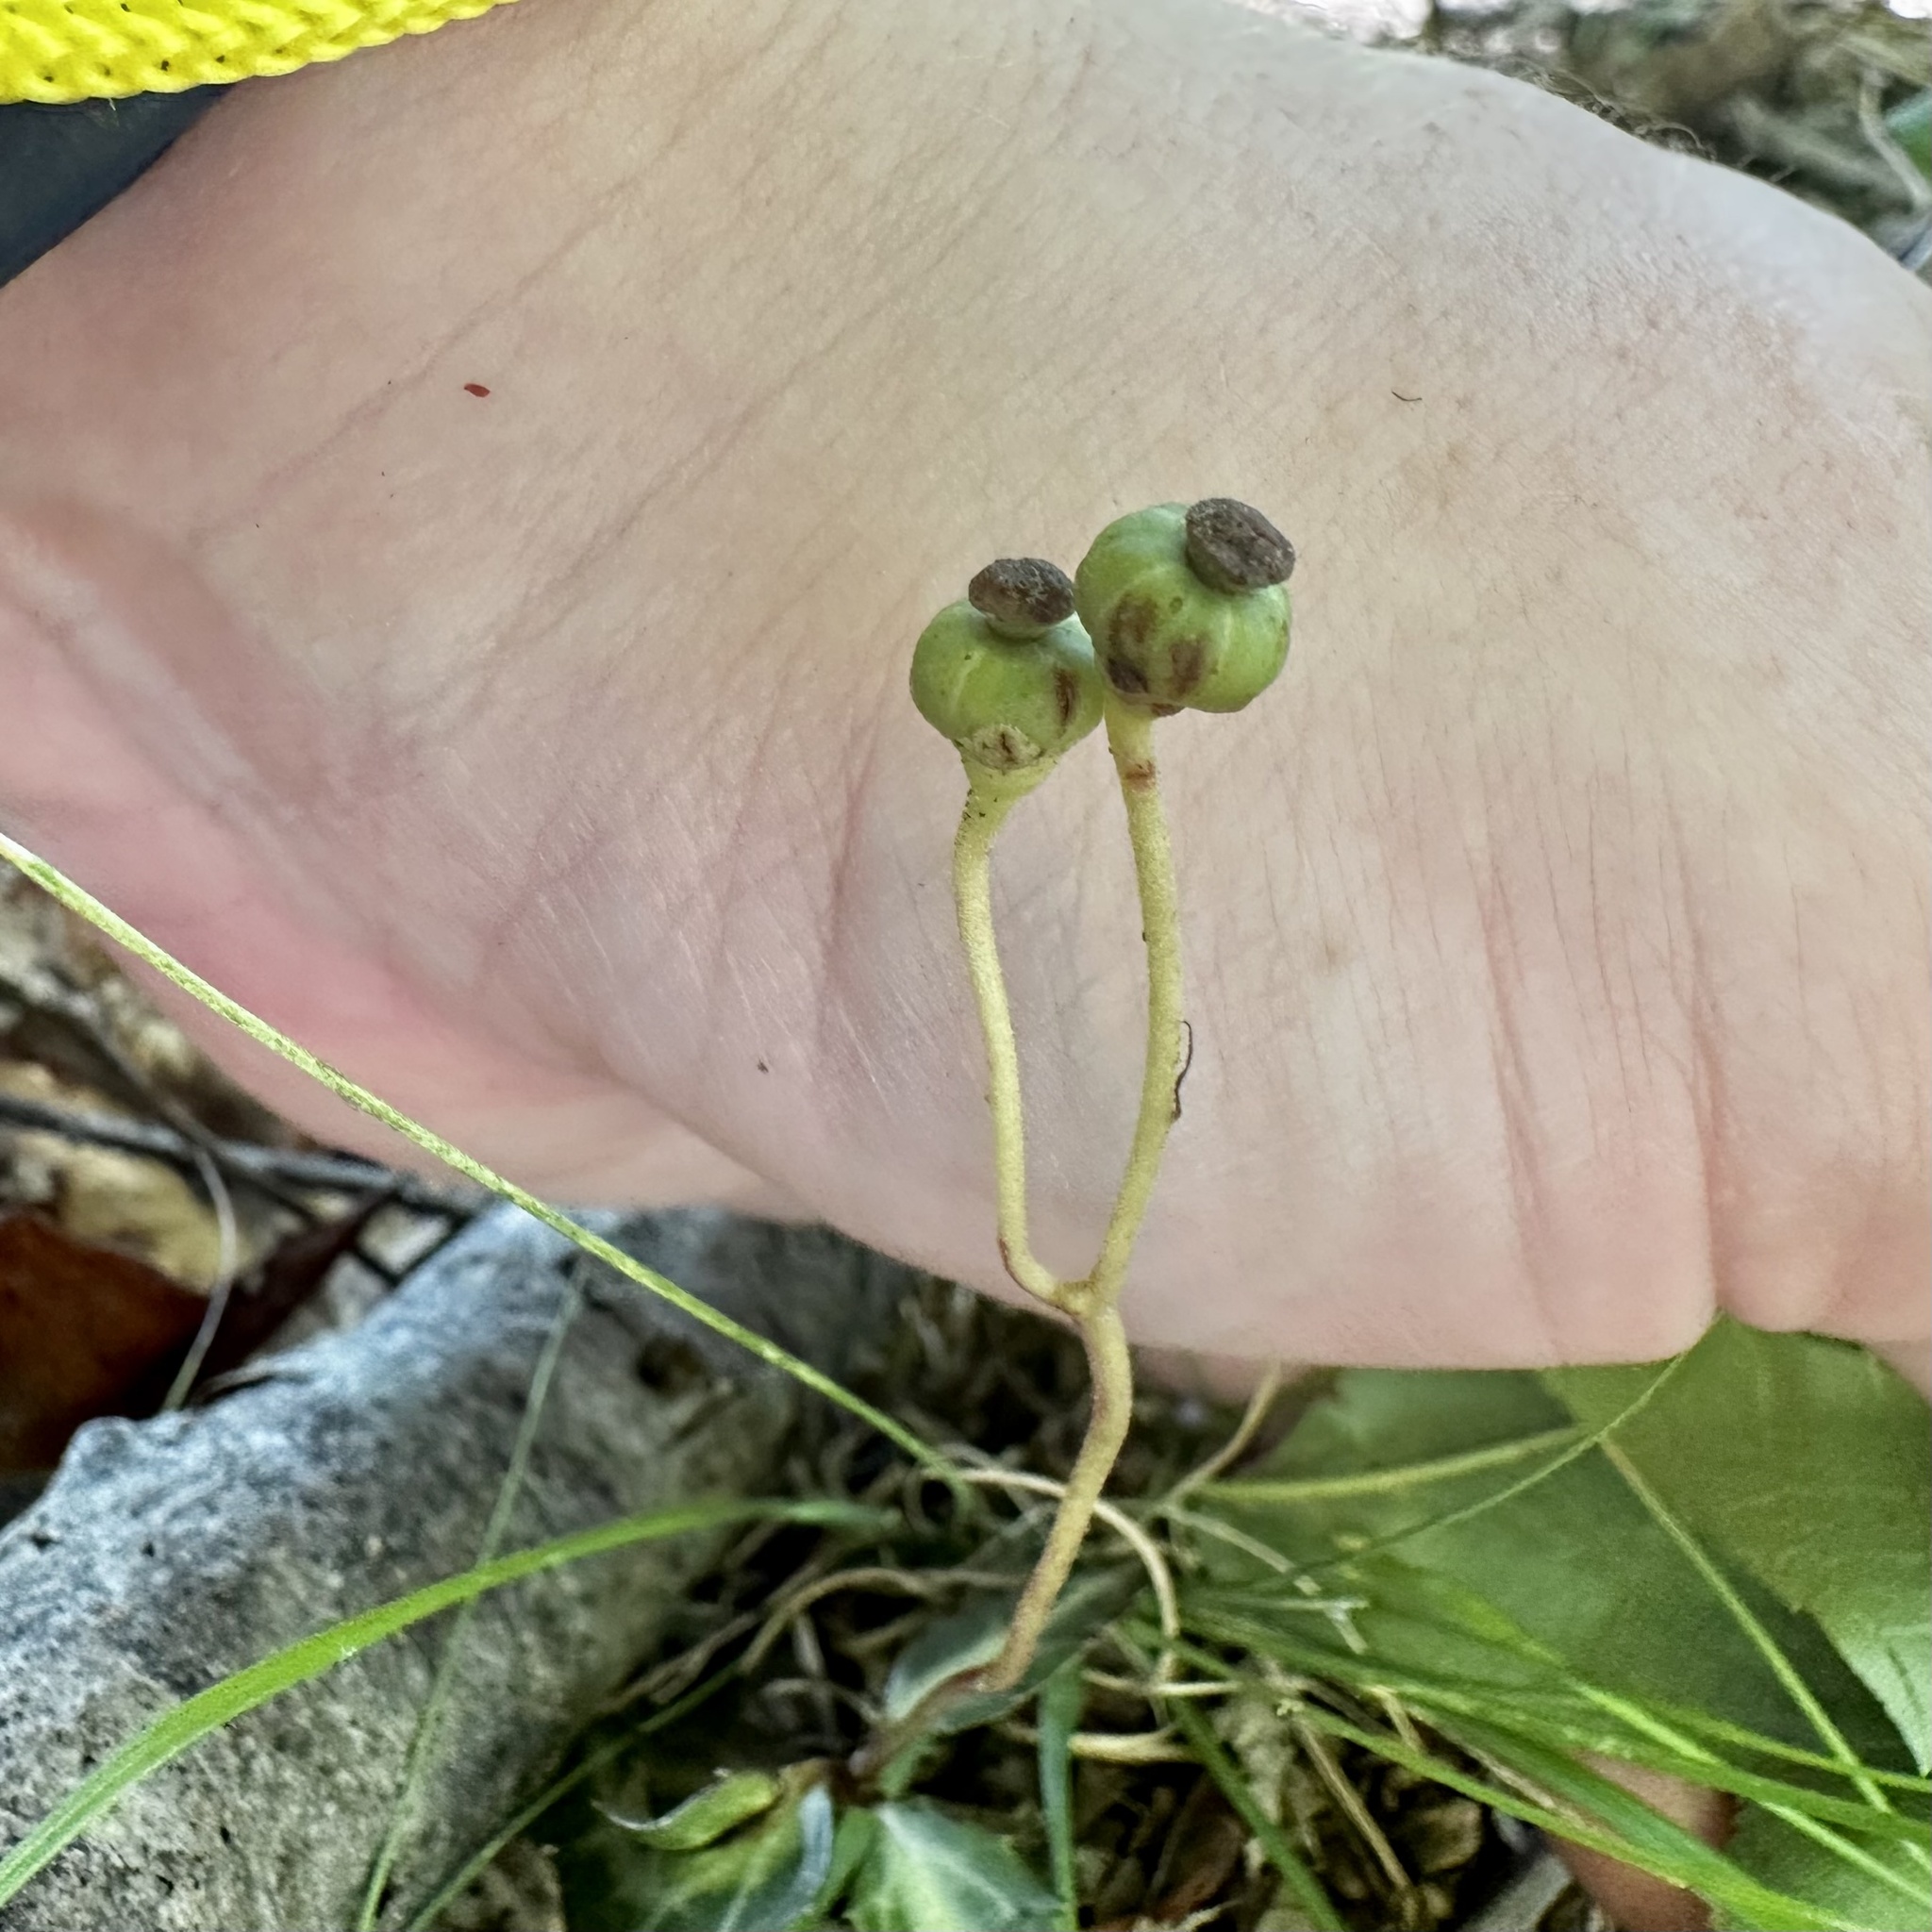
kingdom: Plantae
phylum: Tracheophyta
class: Magnoliopsida
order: Ericales
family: Ericaceae
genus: Chimaphila
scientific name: Chimaphila maculata
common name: Spotted pipsissewa
